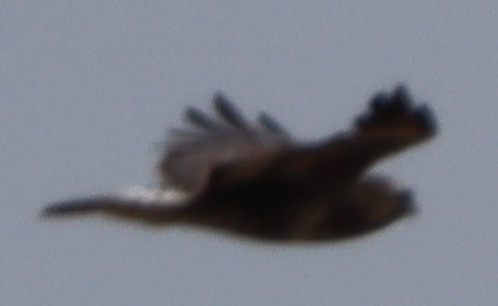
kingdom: Animalia
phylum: Chordata
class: Aves
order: Accipitriformes
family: Accipitridae
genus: Buteo
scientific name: Buteo lagopus
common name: Rough-legged buzzard
